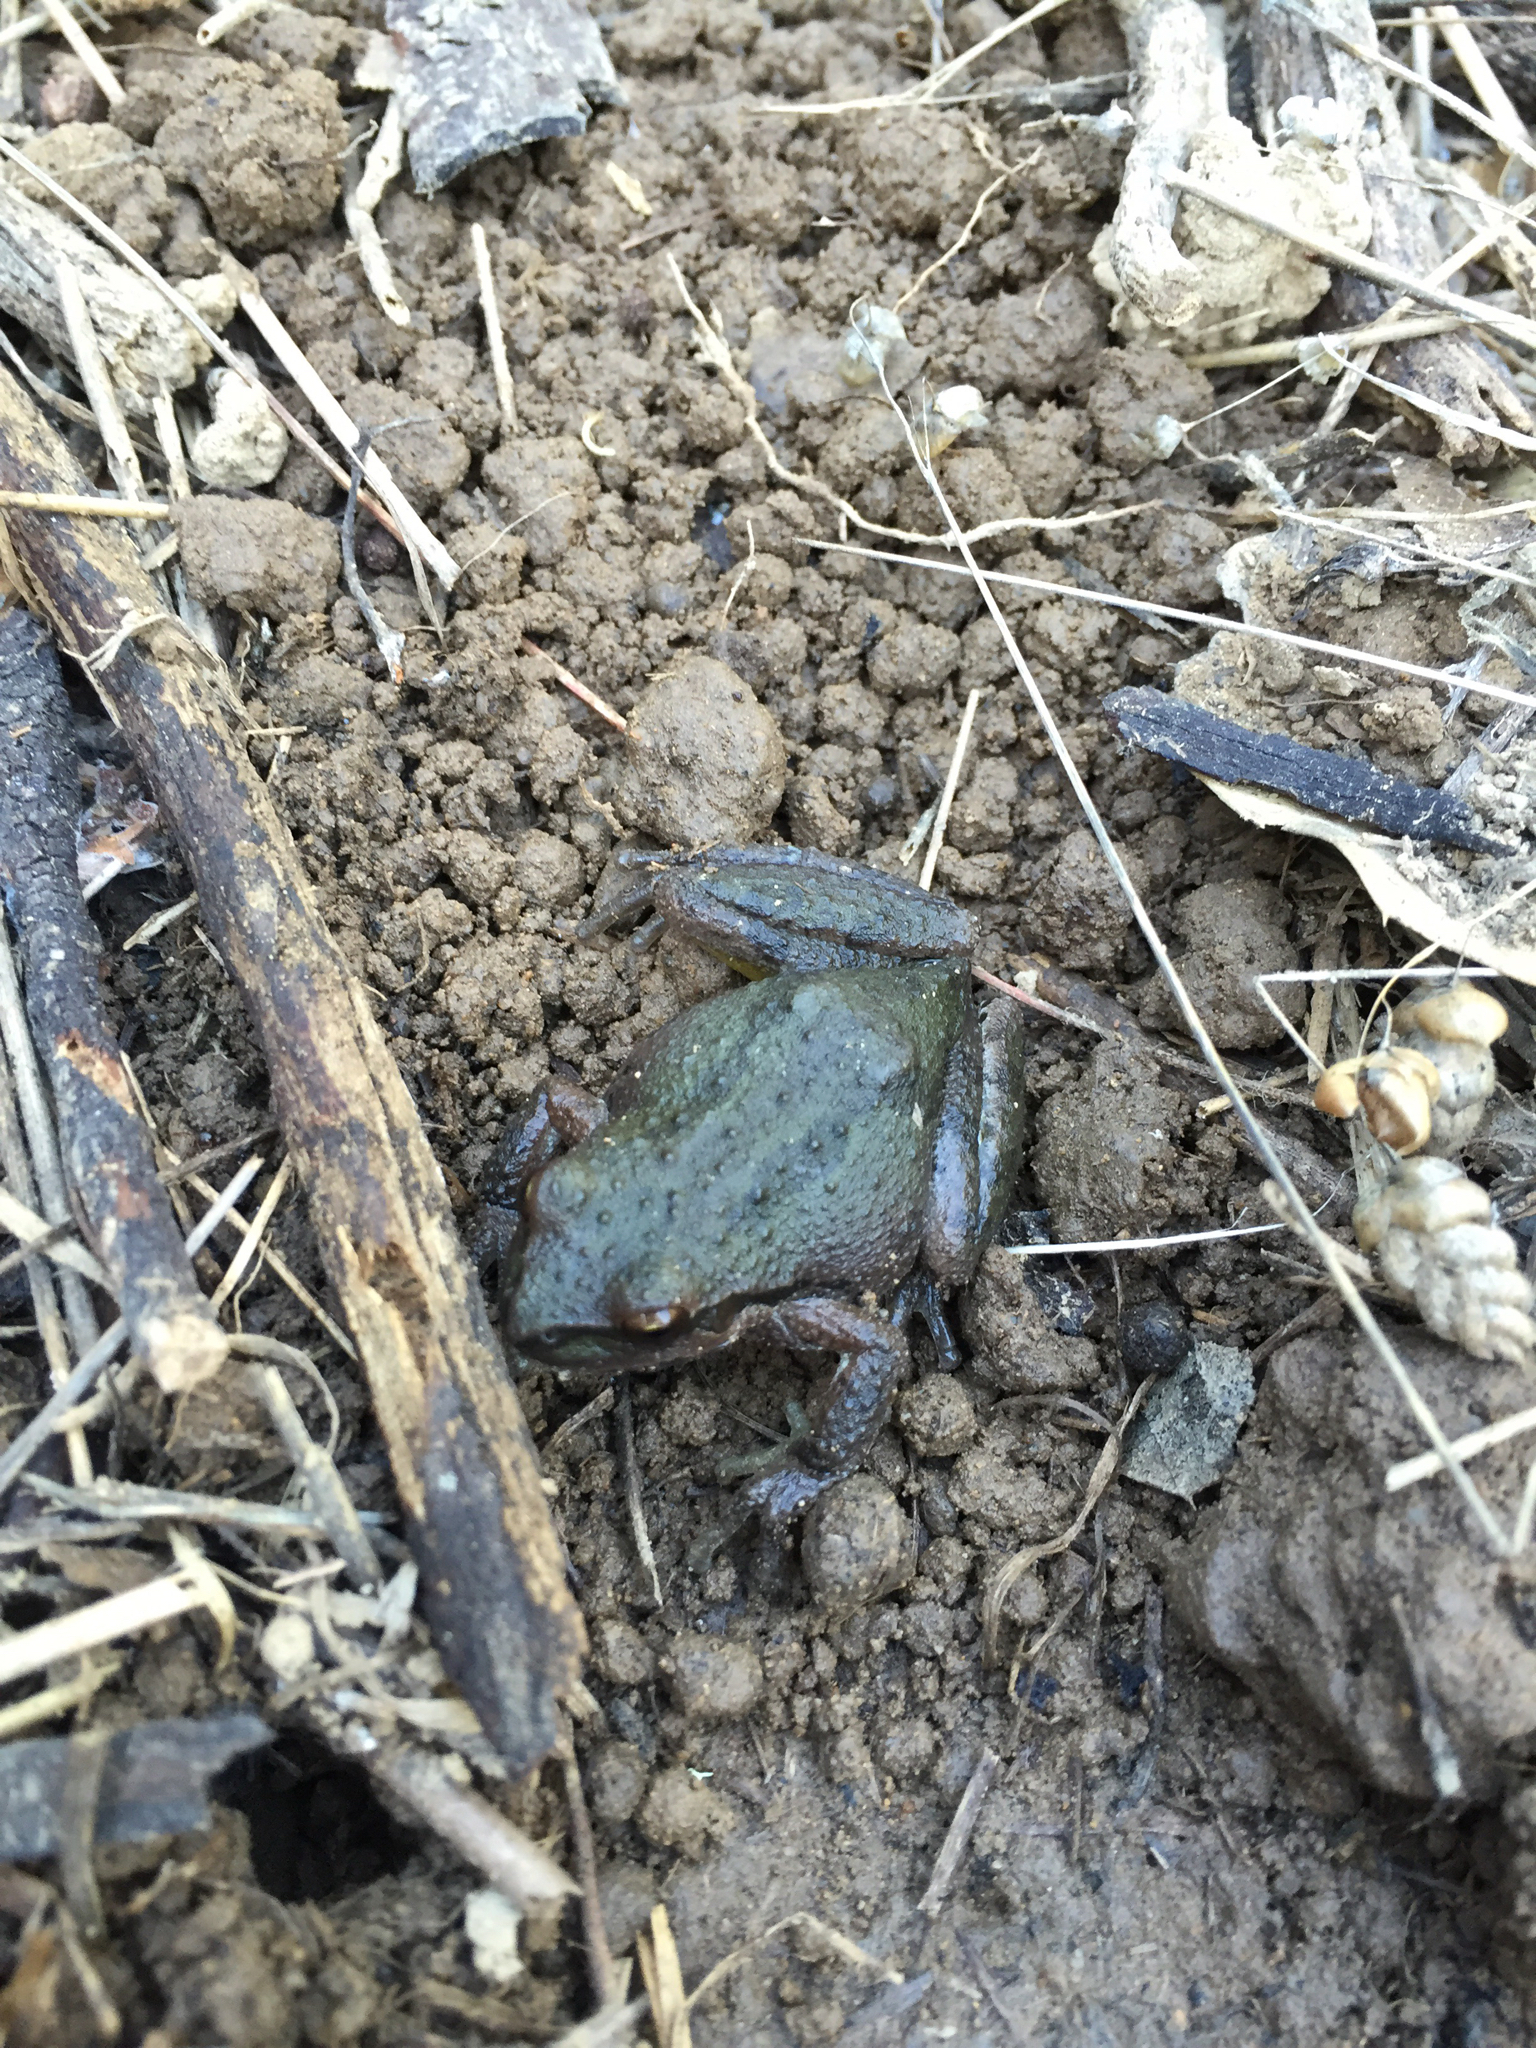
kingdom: Animalia
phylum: Chordata
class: Amphibia
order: Anura
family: Hylidae
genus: Pseudacris
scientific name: Pseudacris regilla
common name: Pacific chorus frog
